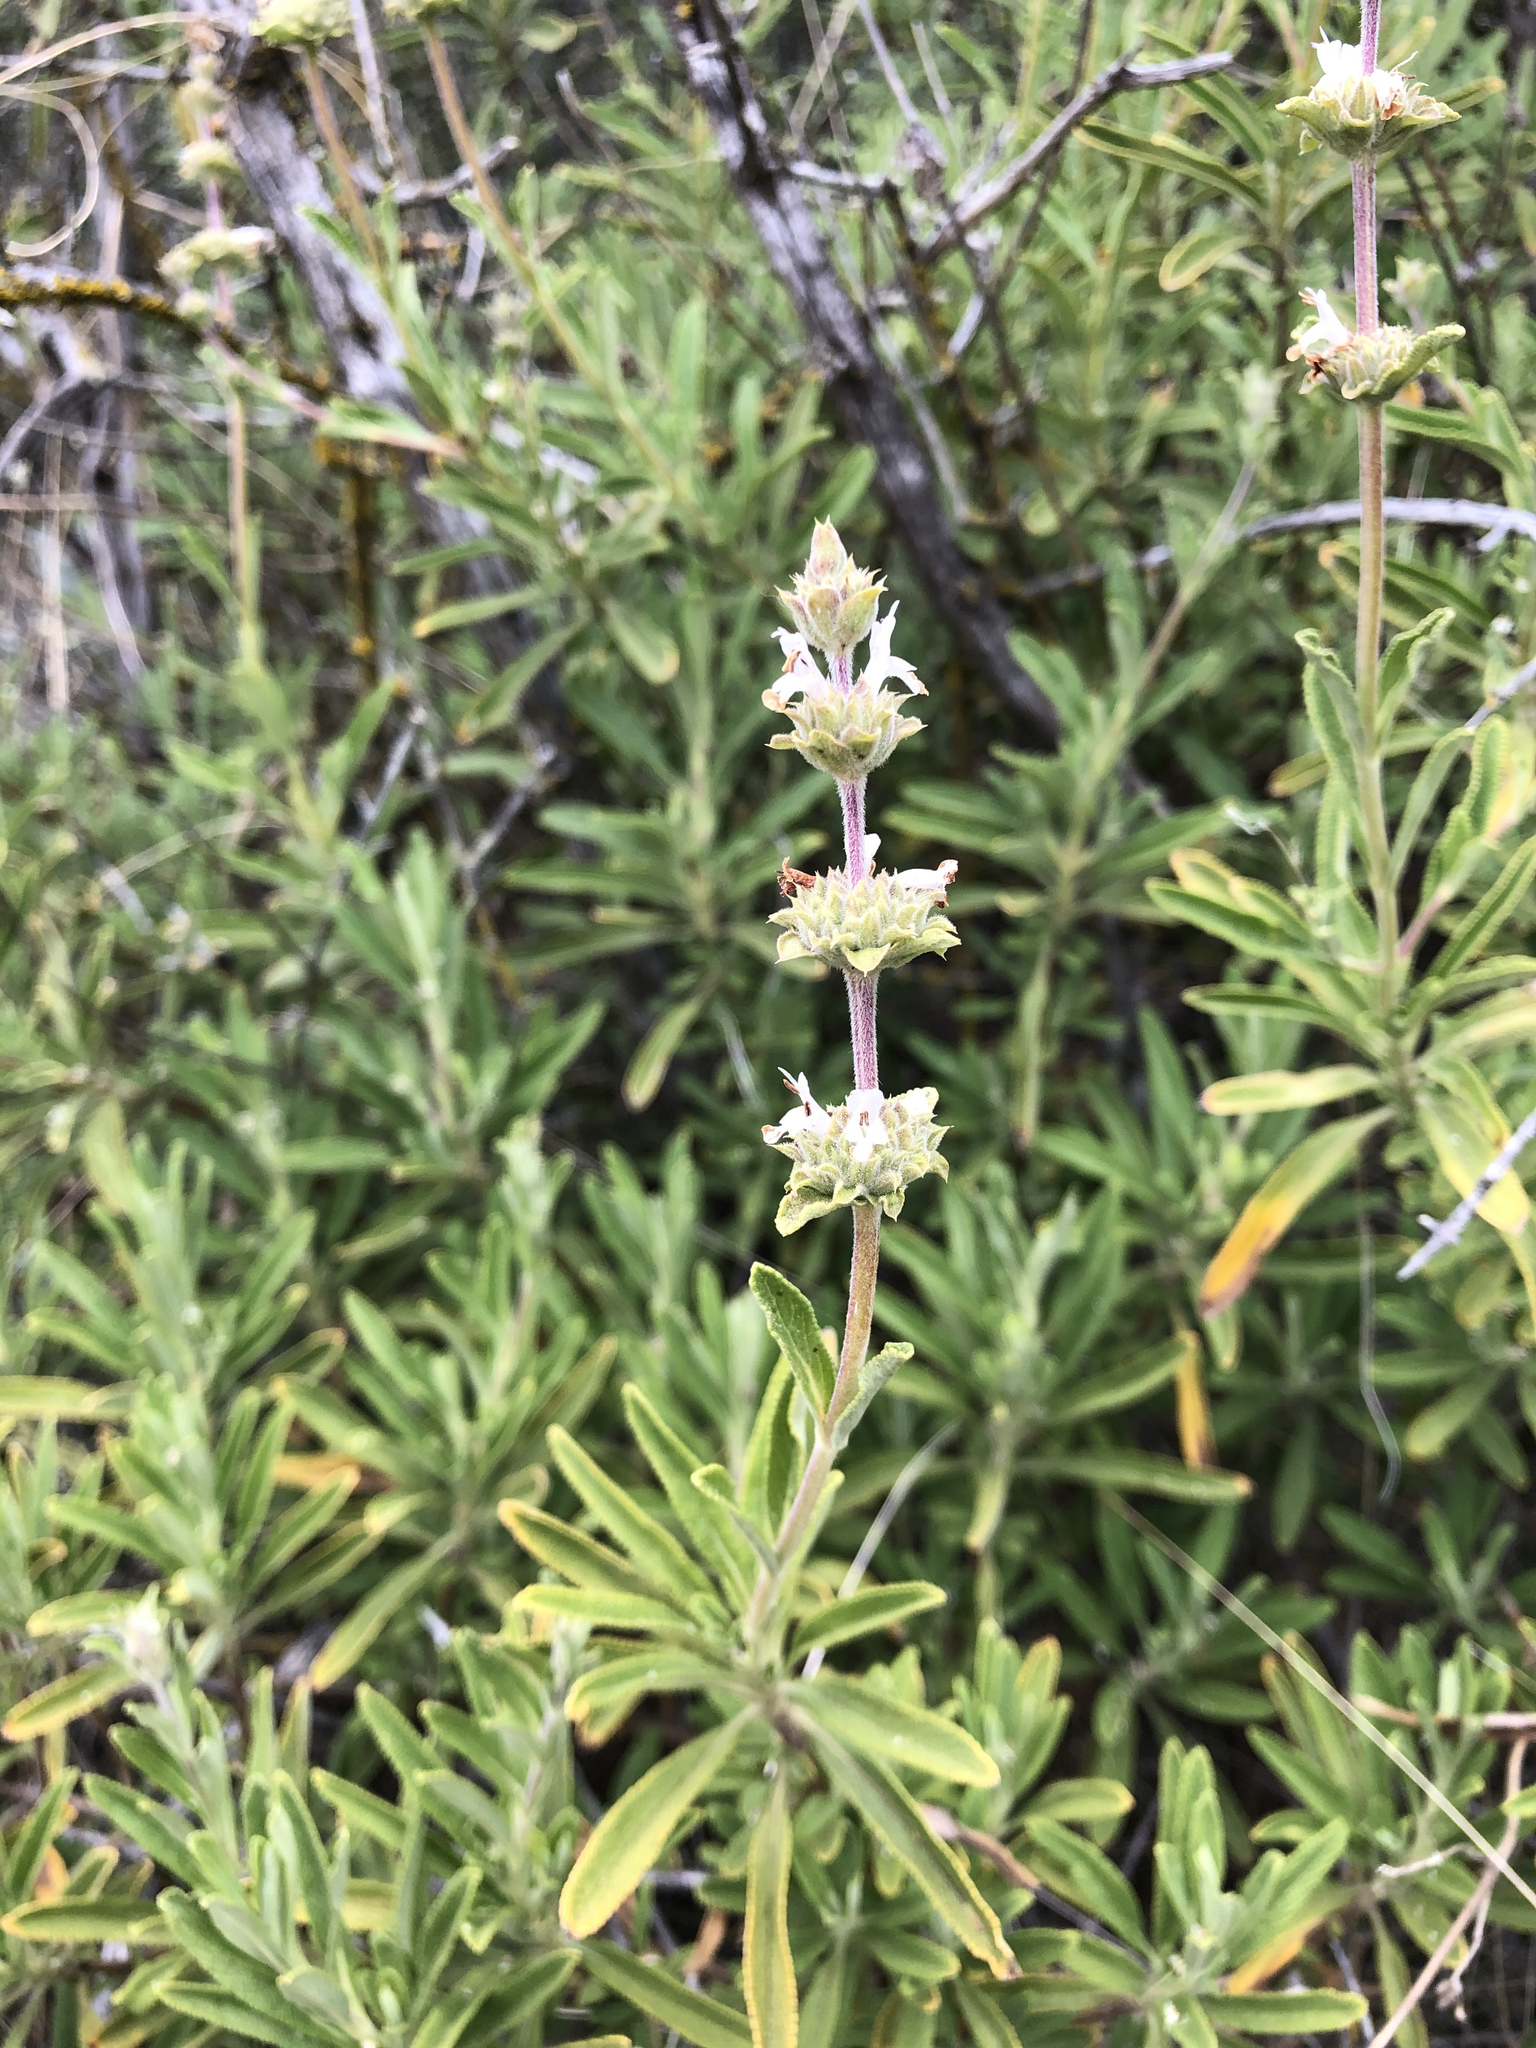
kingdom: Plantae
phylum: Tracheophyta
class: Magnoliopsida
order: Lamiales
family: Lamiaceae
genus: Salvia
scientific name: Salvia mellifera
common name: Black sage
